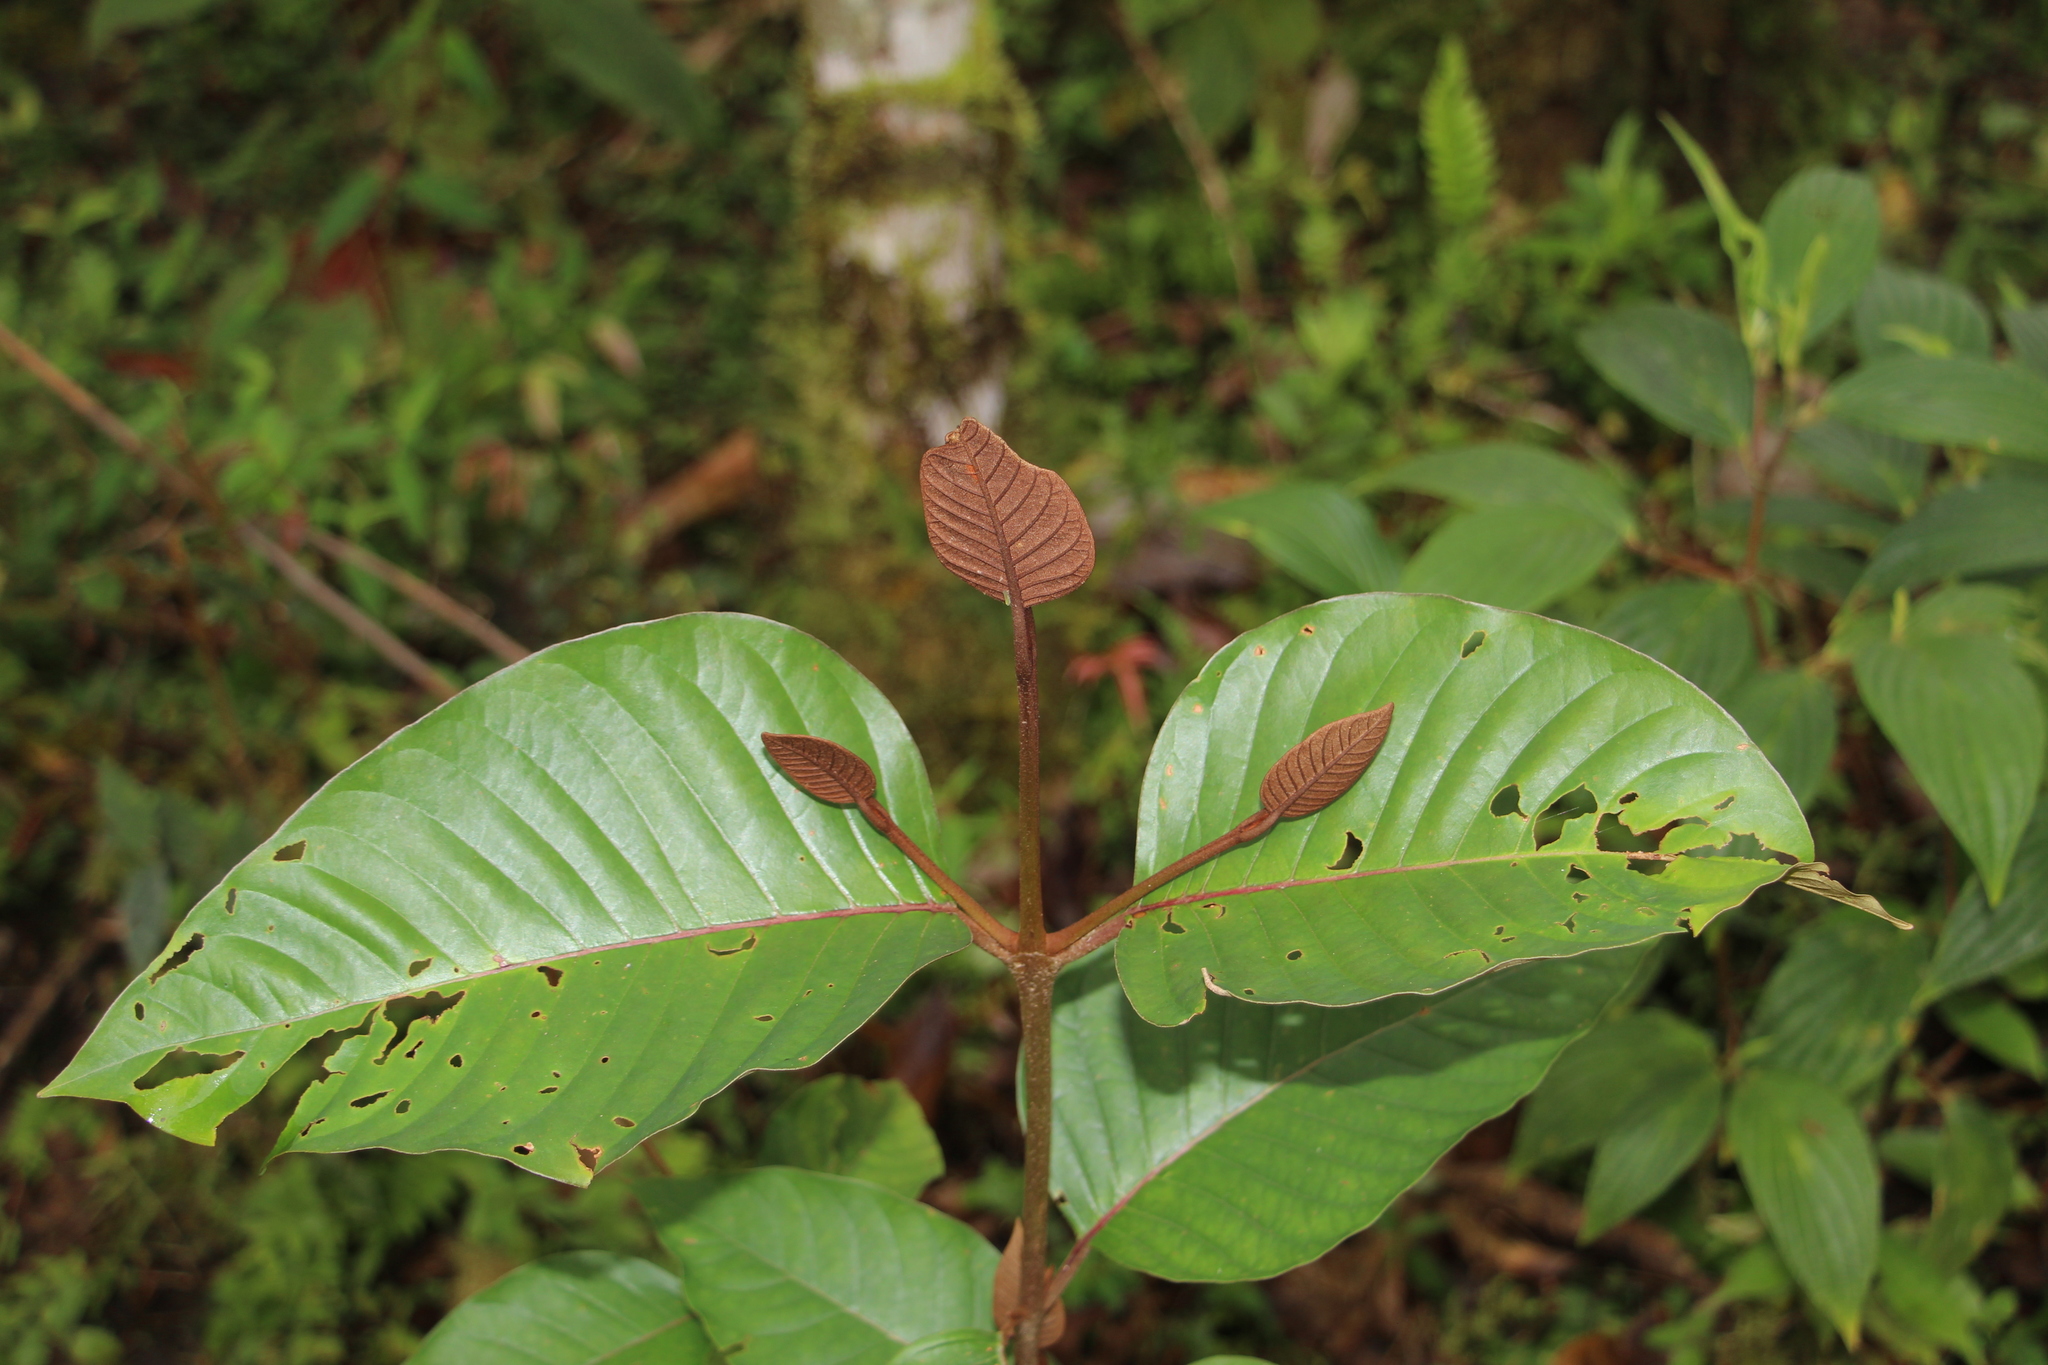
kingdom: Plantae
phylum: Tracheophyta
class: Magnoliopsida
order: Malpighiales
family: Hypericaceae
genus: Vismia
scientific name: Vismia macrophylla
